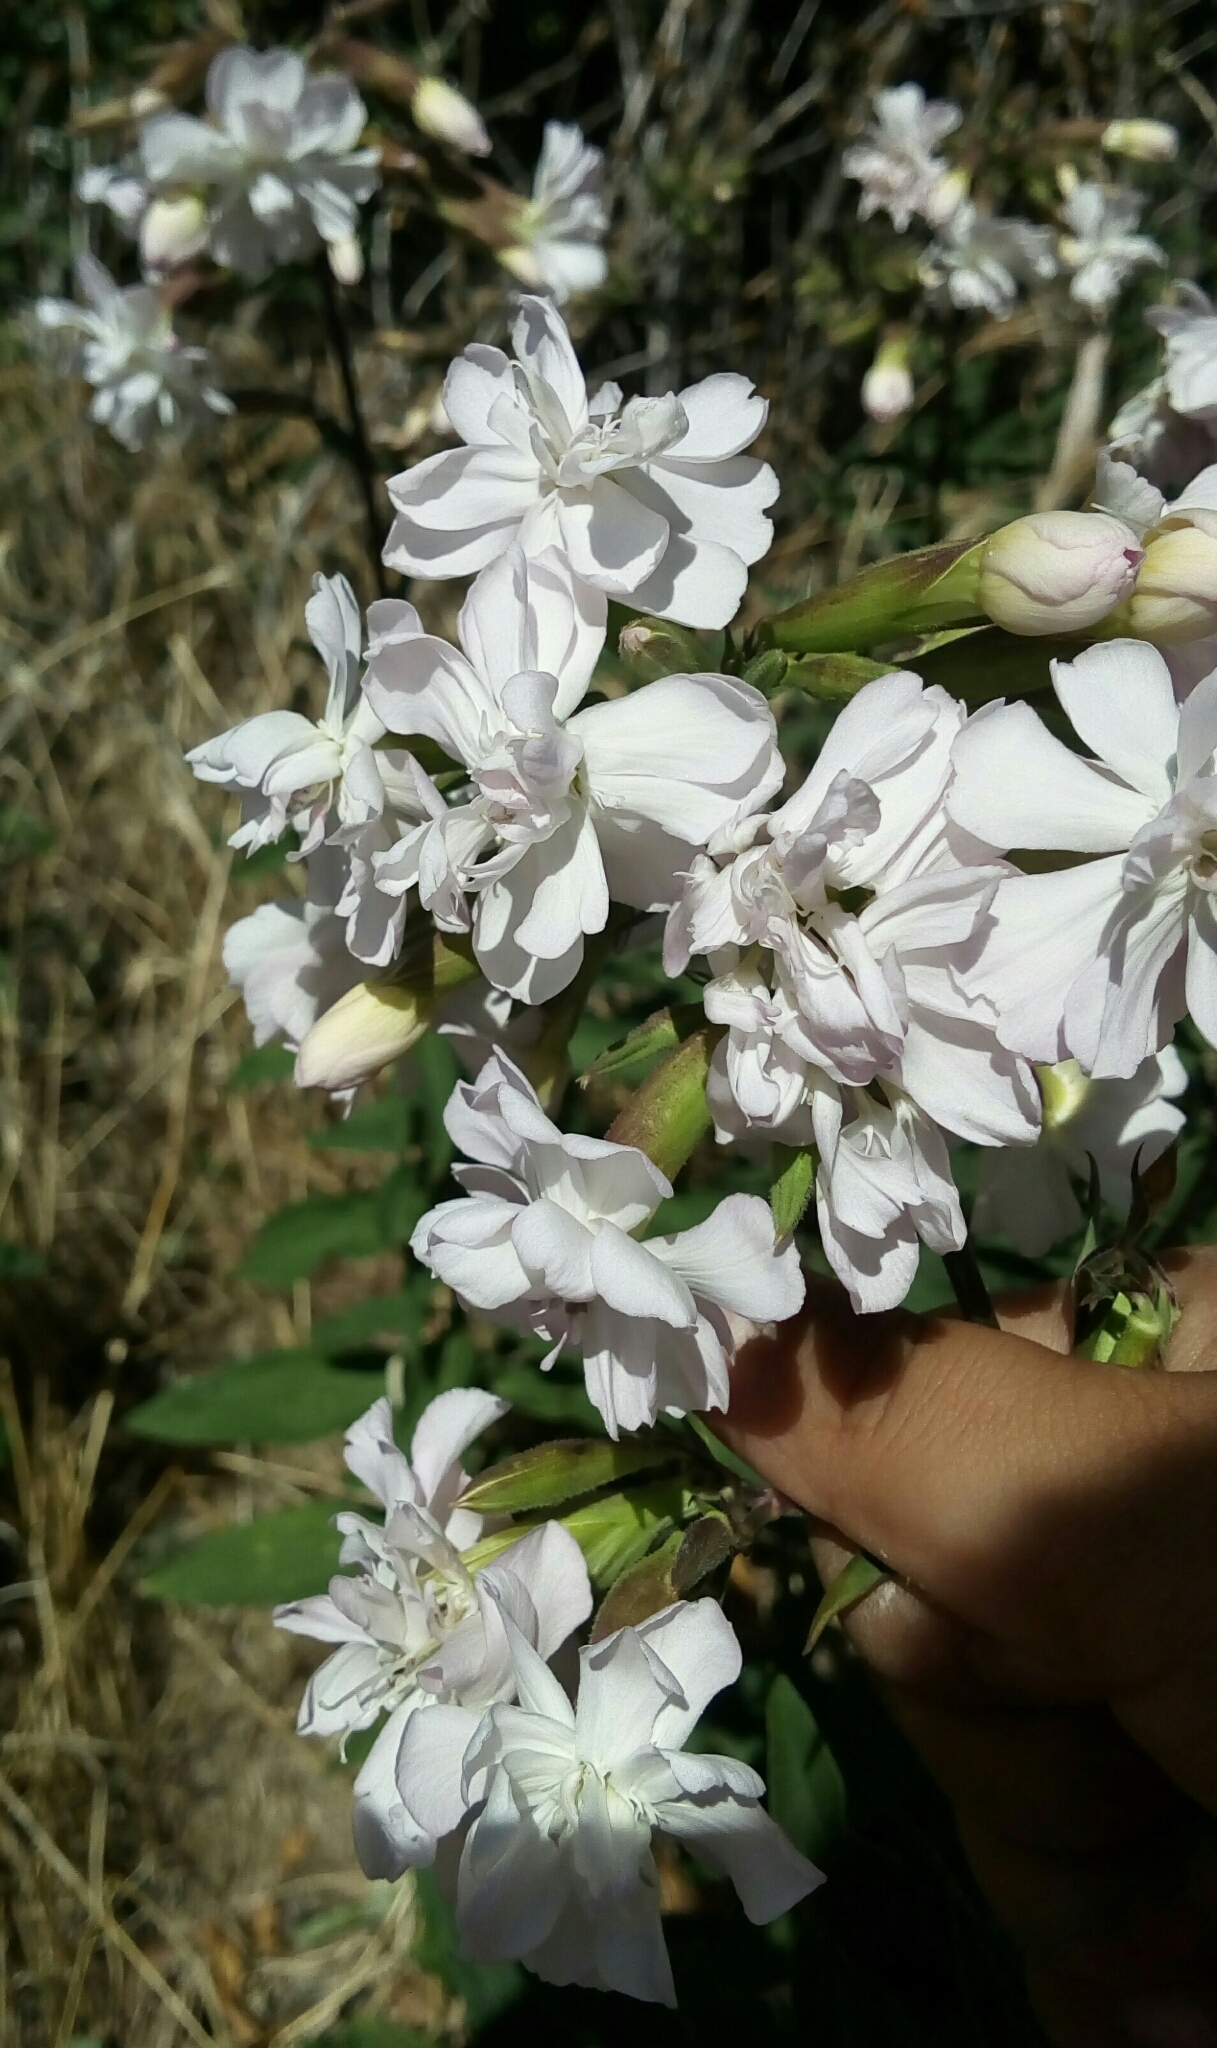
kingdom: Plantae
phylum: Tracheophyta
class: Magnoliopsida
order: Caryophyllales
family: Caryophyllaceae
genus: Saponaria
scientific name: Saponaria officinalis
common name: Soapwort
